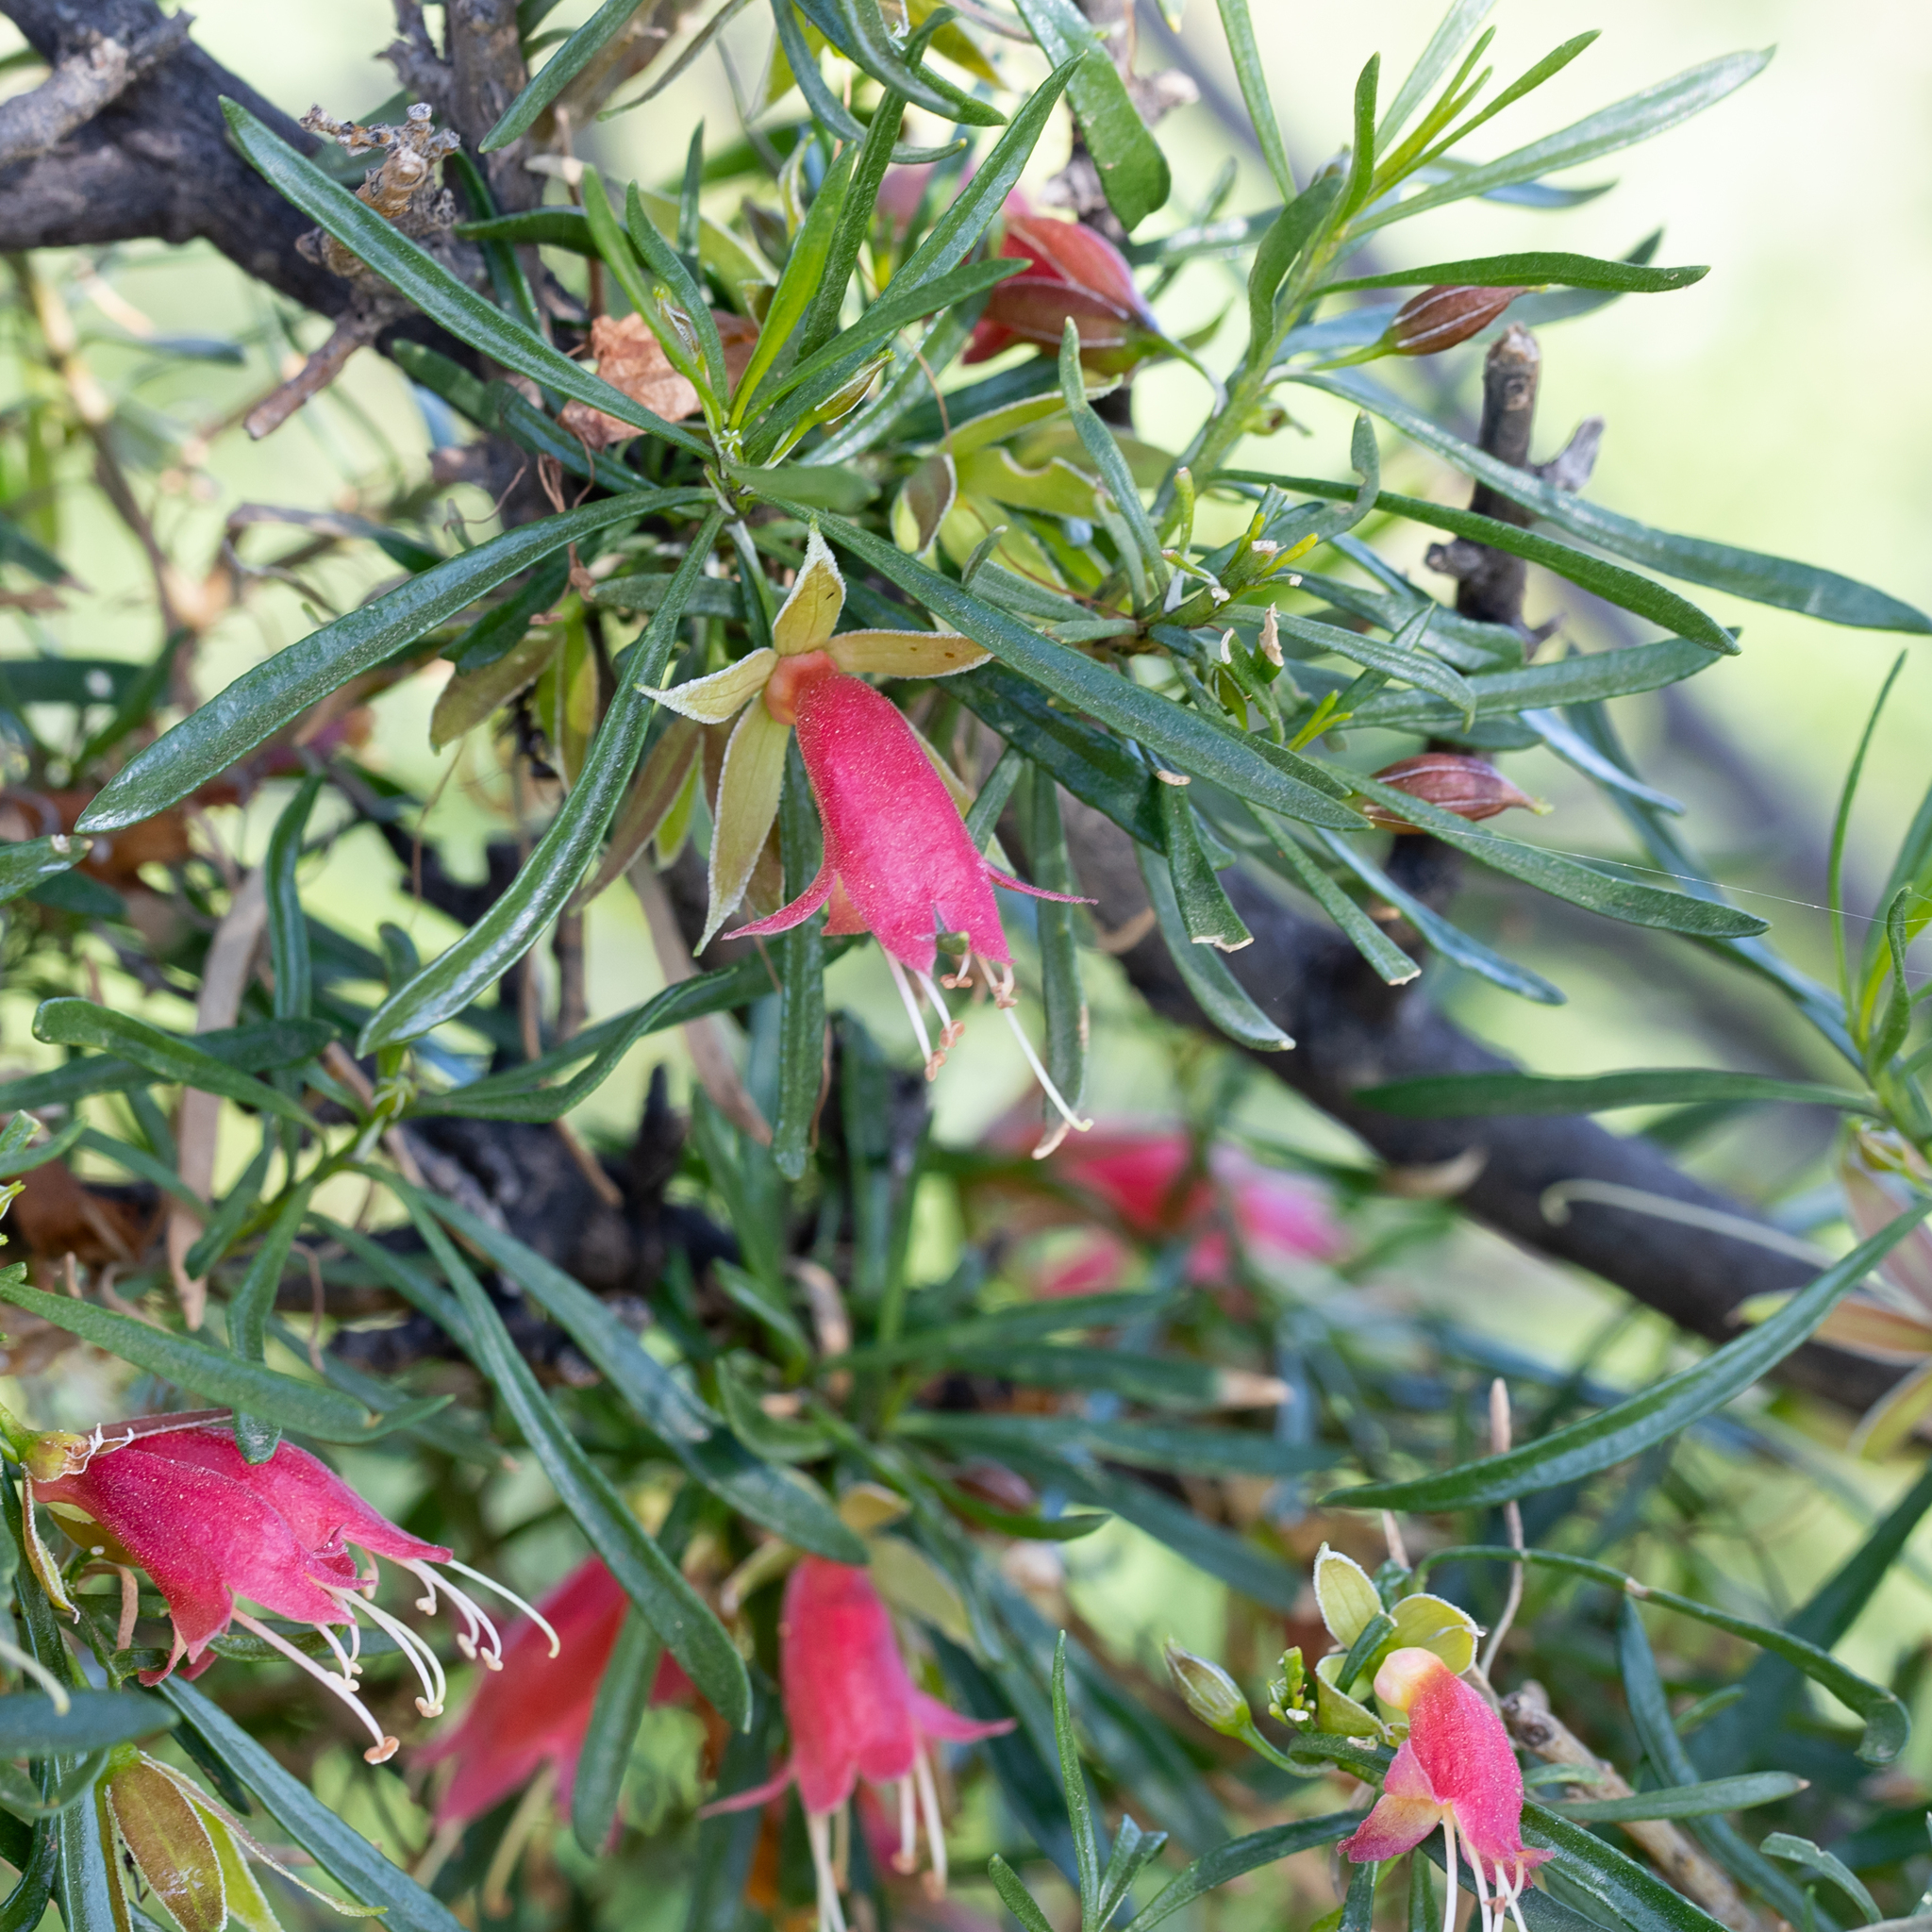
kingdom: Plantae
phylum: Tracheophyta
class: Magnoliopsida
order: Lamiales
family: Scrophulariaceae
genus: Eremophila
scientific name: Eremophila latrobei
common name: Crimson turkeybush
